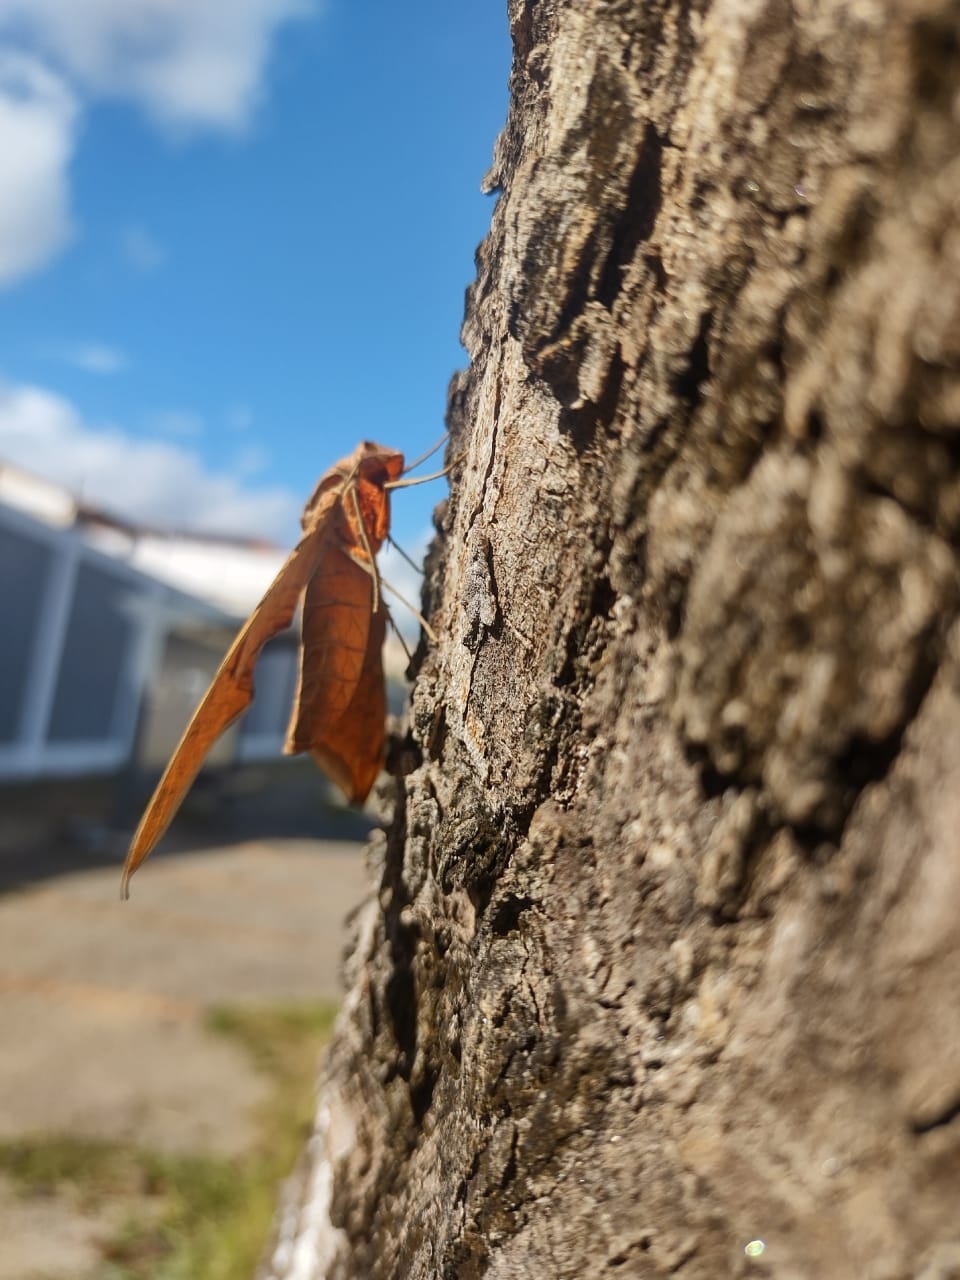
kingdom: Animalia
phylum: Arthropoda
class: Insecta
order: Lepidoptera
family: Sphingidae
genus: Protambulyx
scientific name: Protambulyx strigilis
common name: Streaked sphinx
